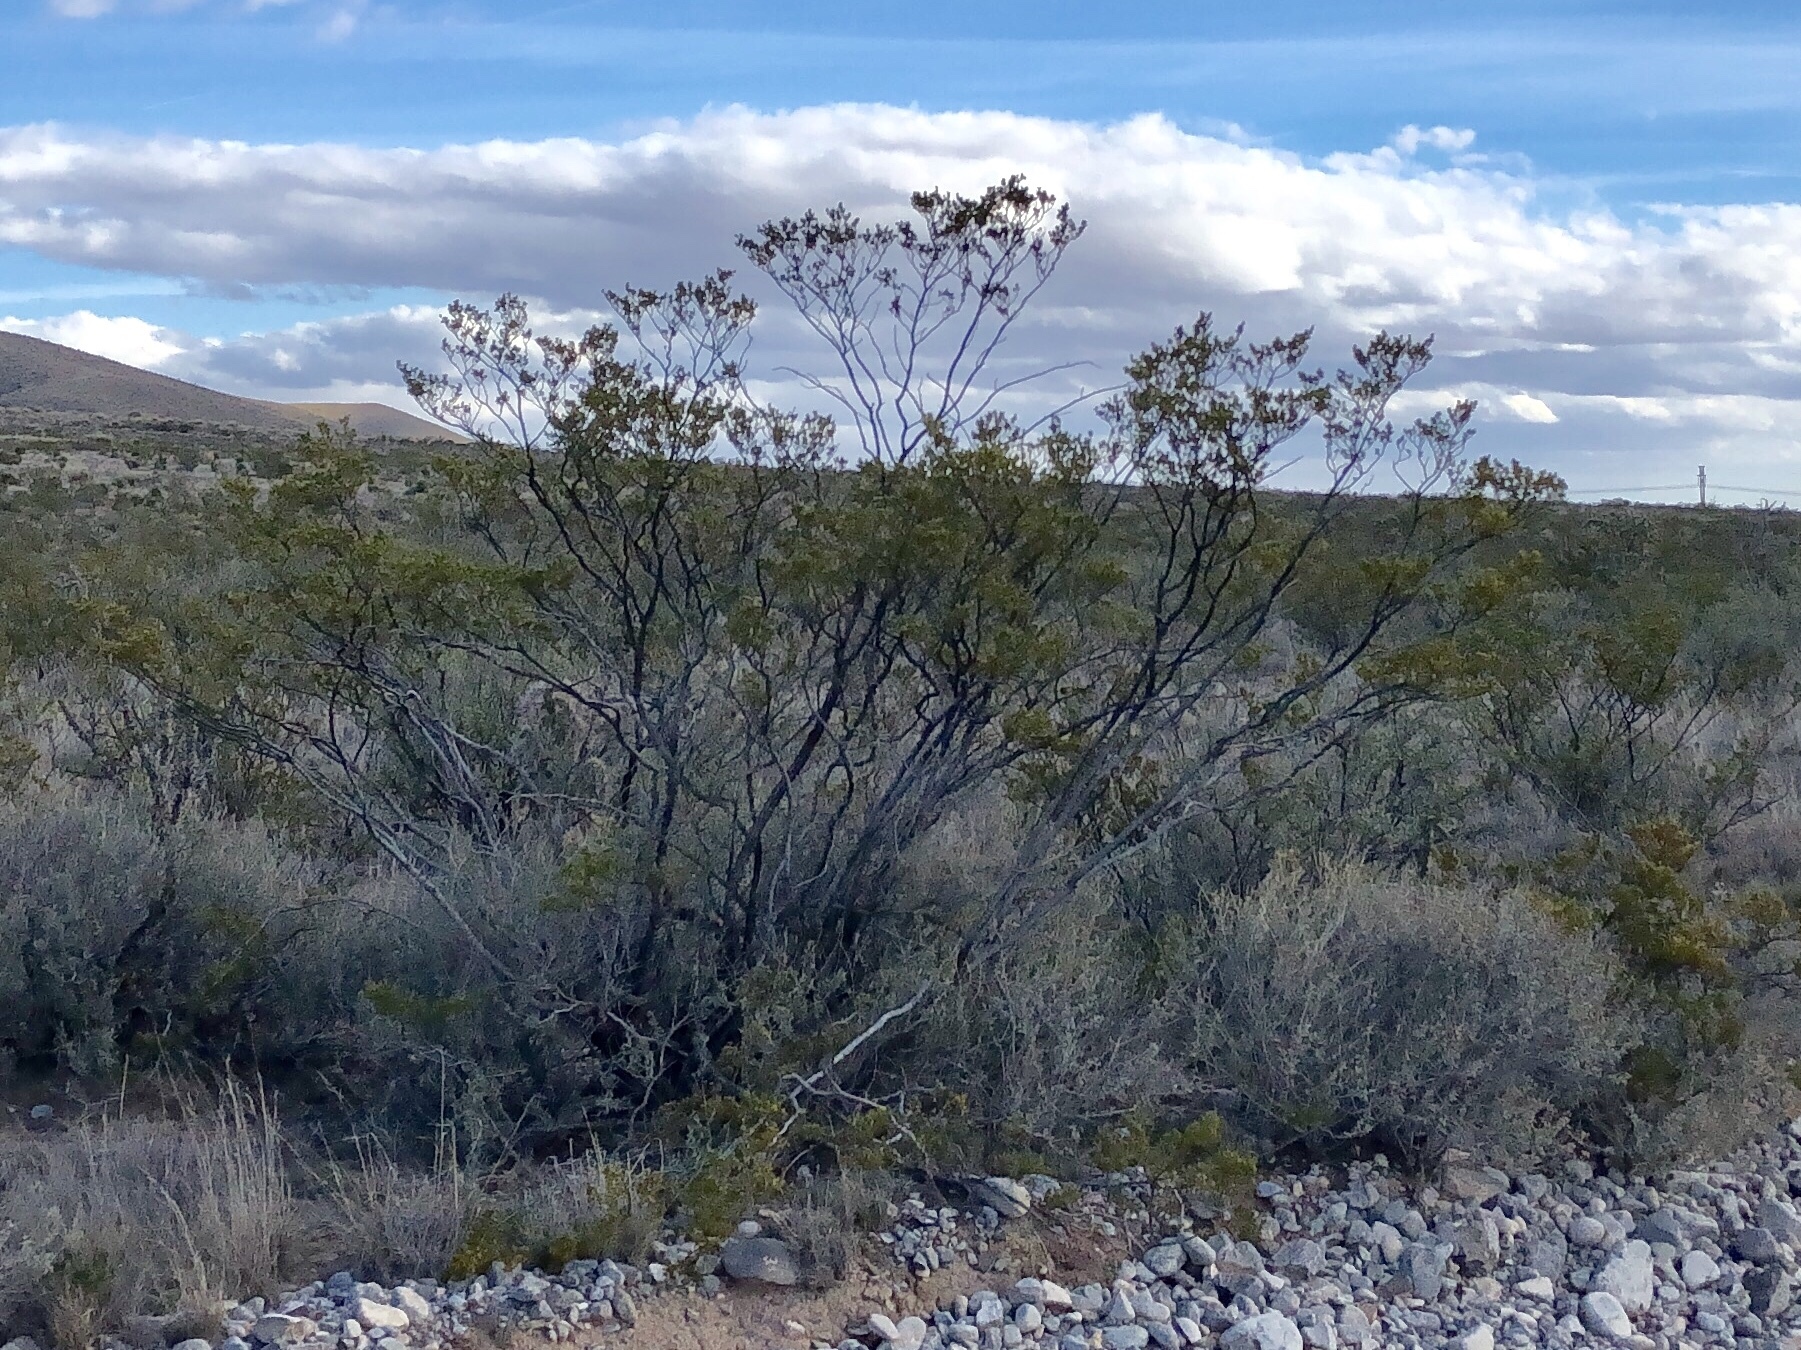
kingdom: Plantae
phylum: Tracheophyta
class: Magnoliopsida
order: Zygophyllales
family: Zygophyllaceae
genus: Larrea
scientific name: Larrea tridentata
